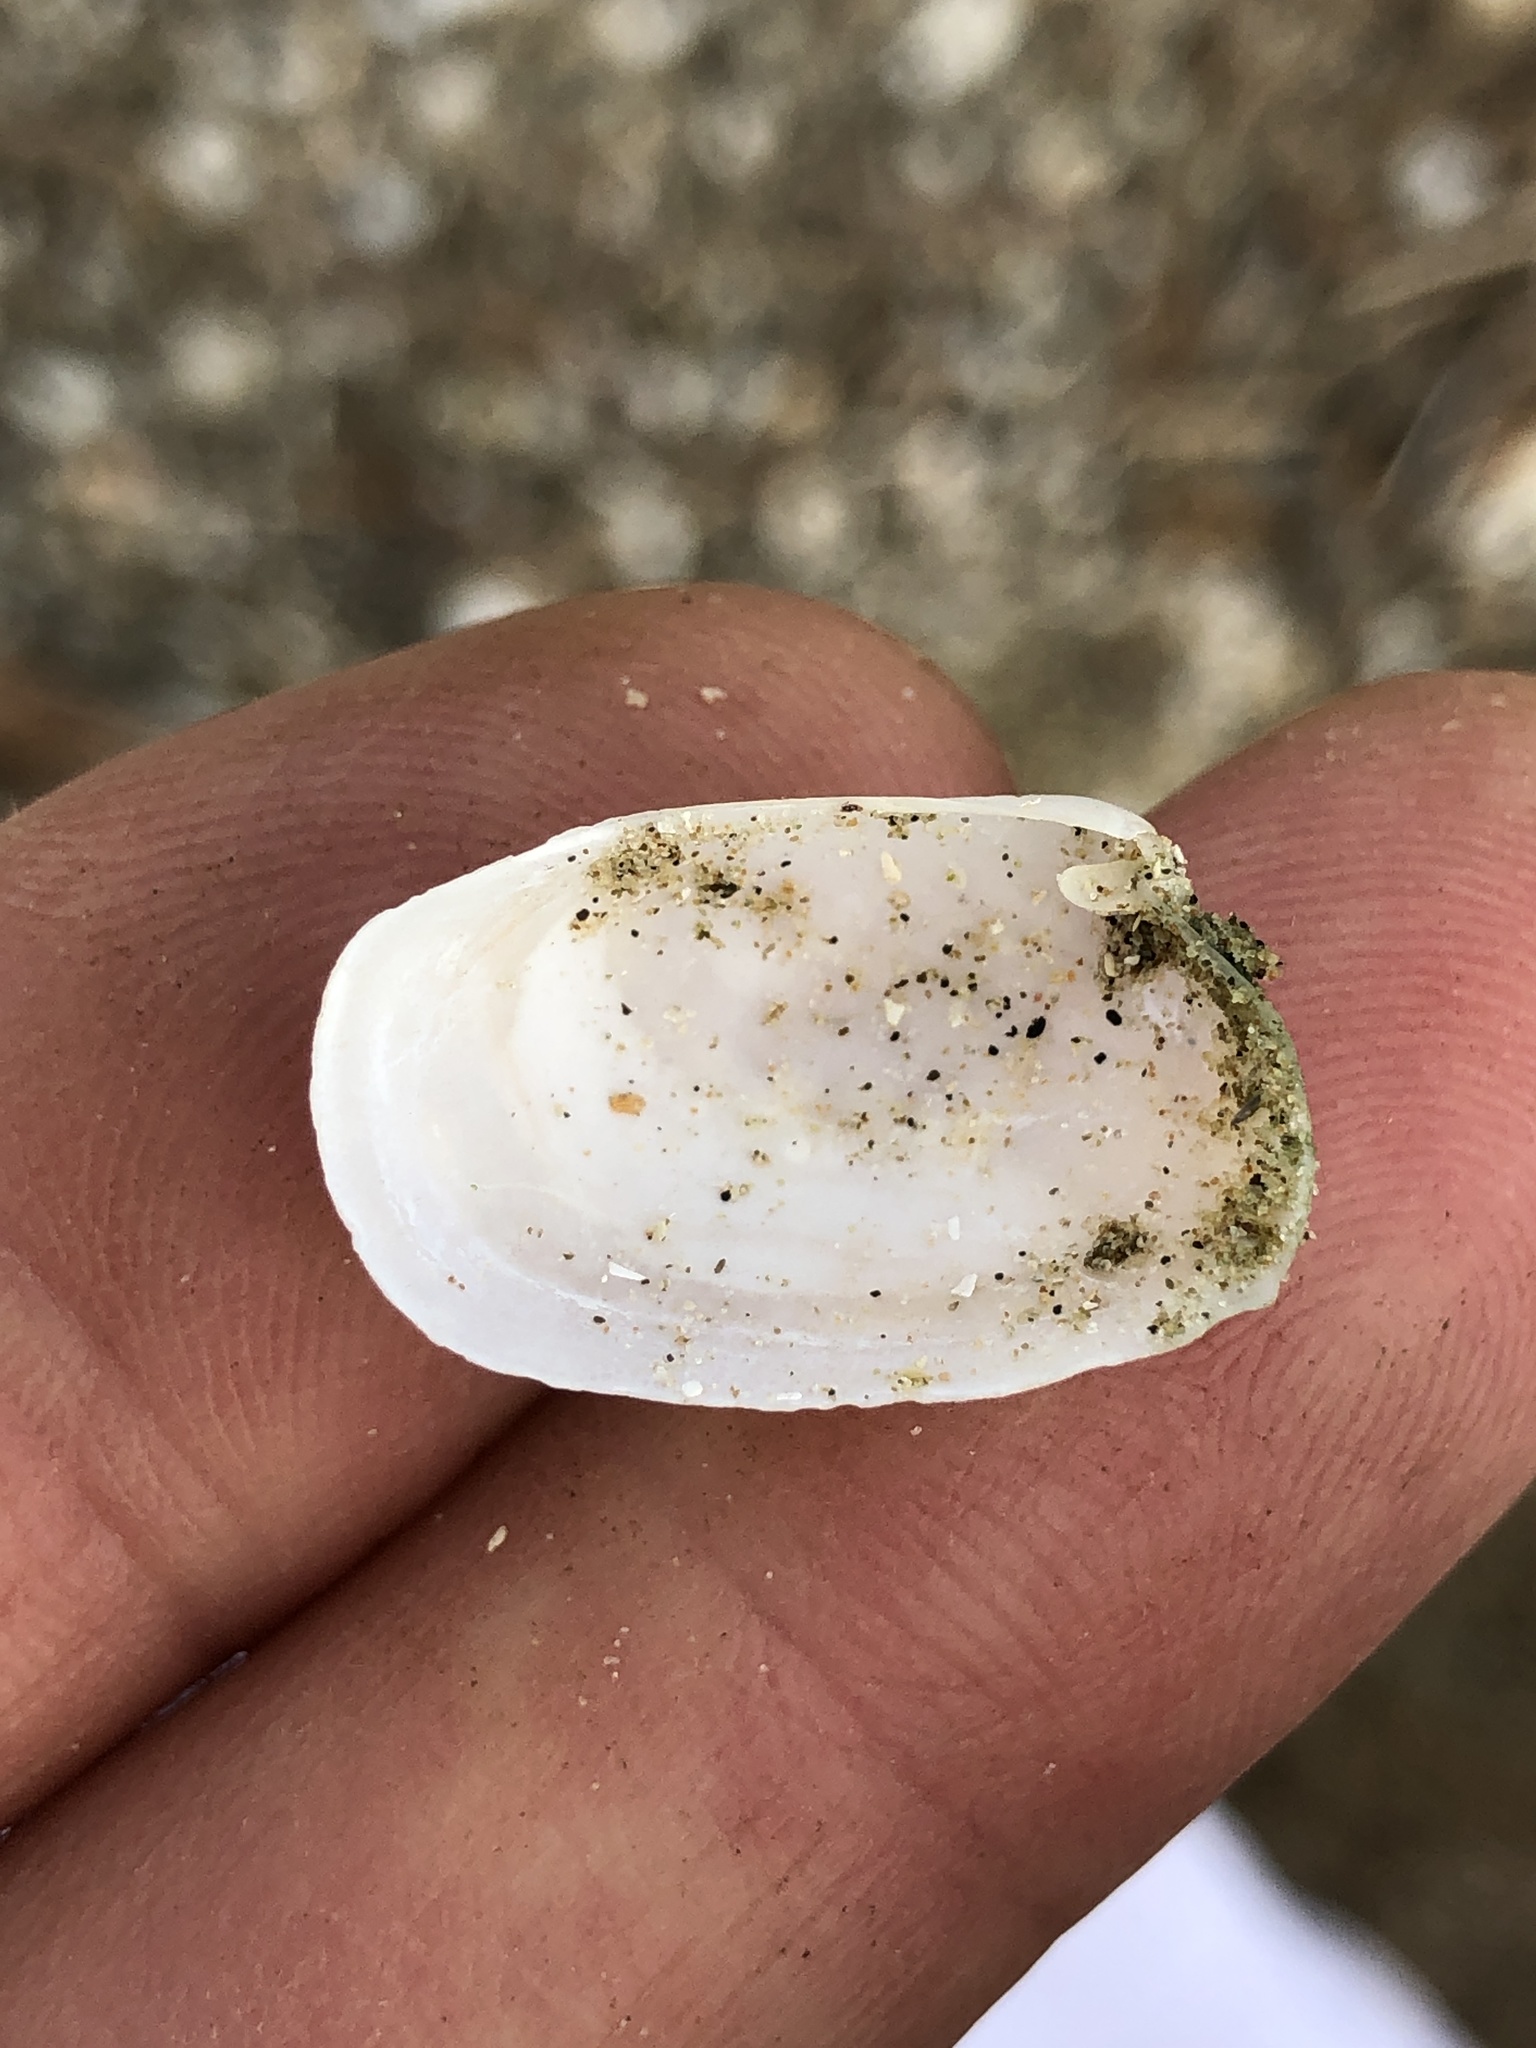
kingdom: Animalia
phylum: Mollusca
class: Bivalvia
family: Periplomatidae
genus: Periploma
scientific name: Periploma inequale
